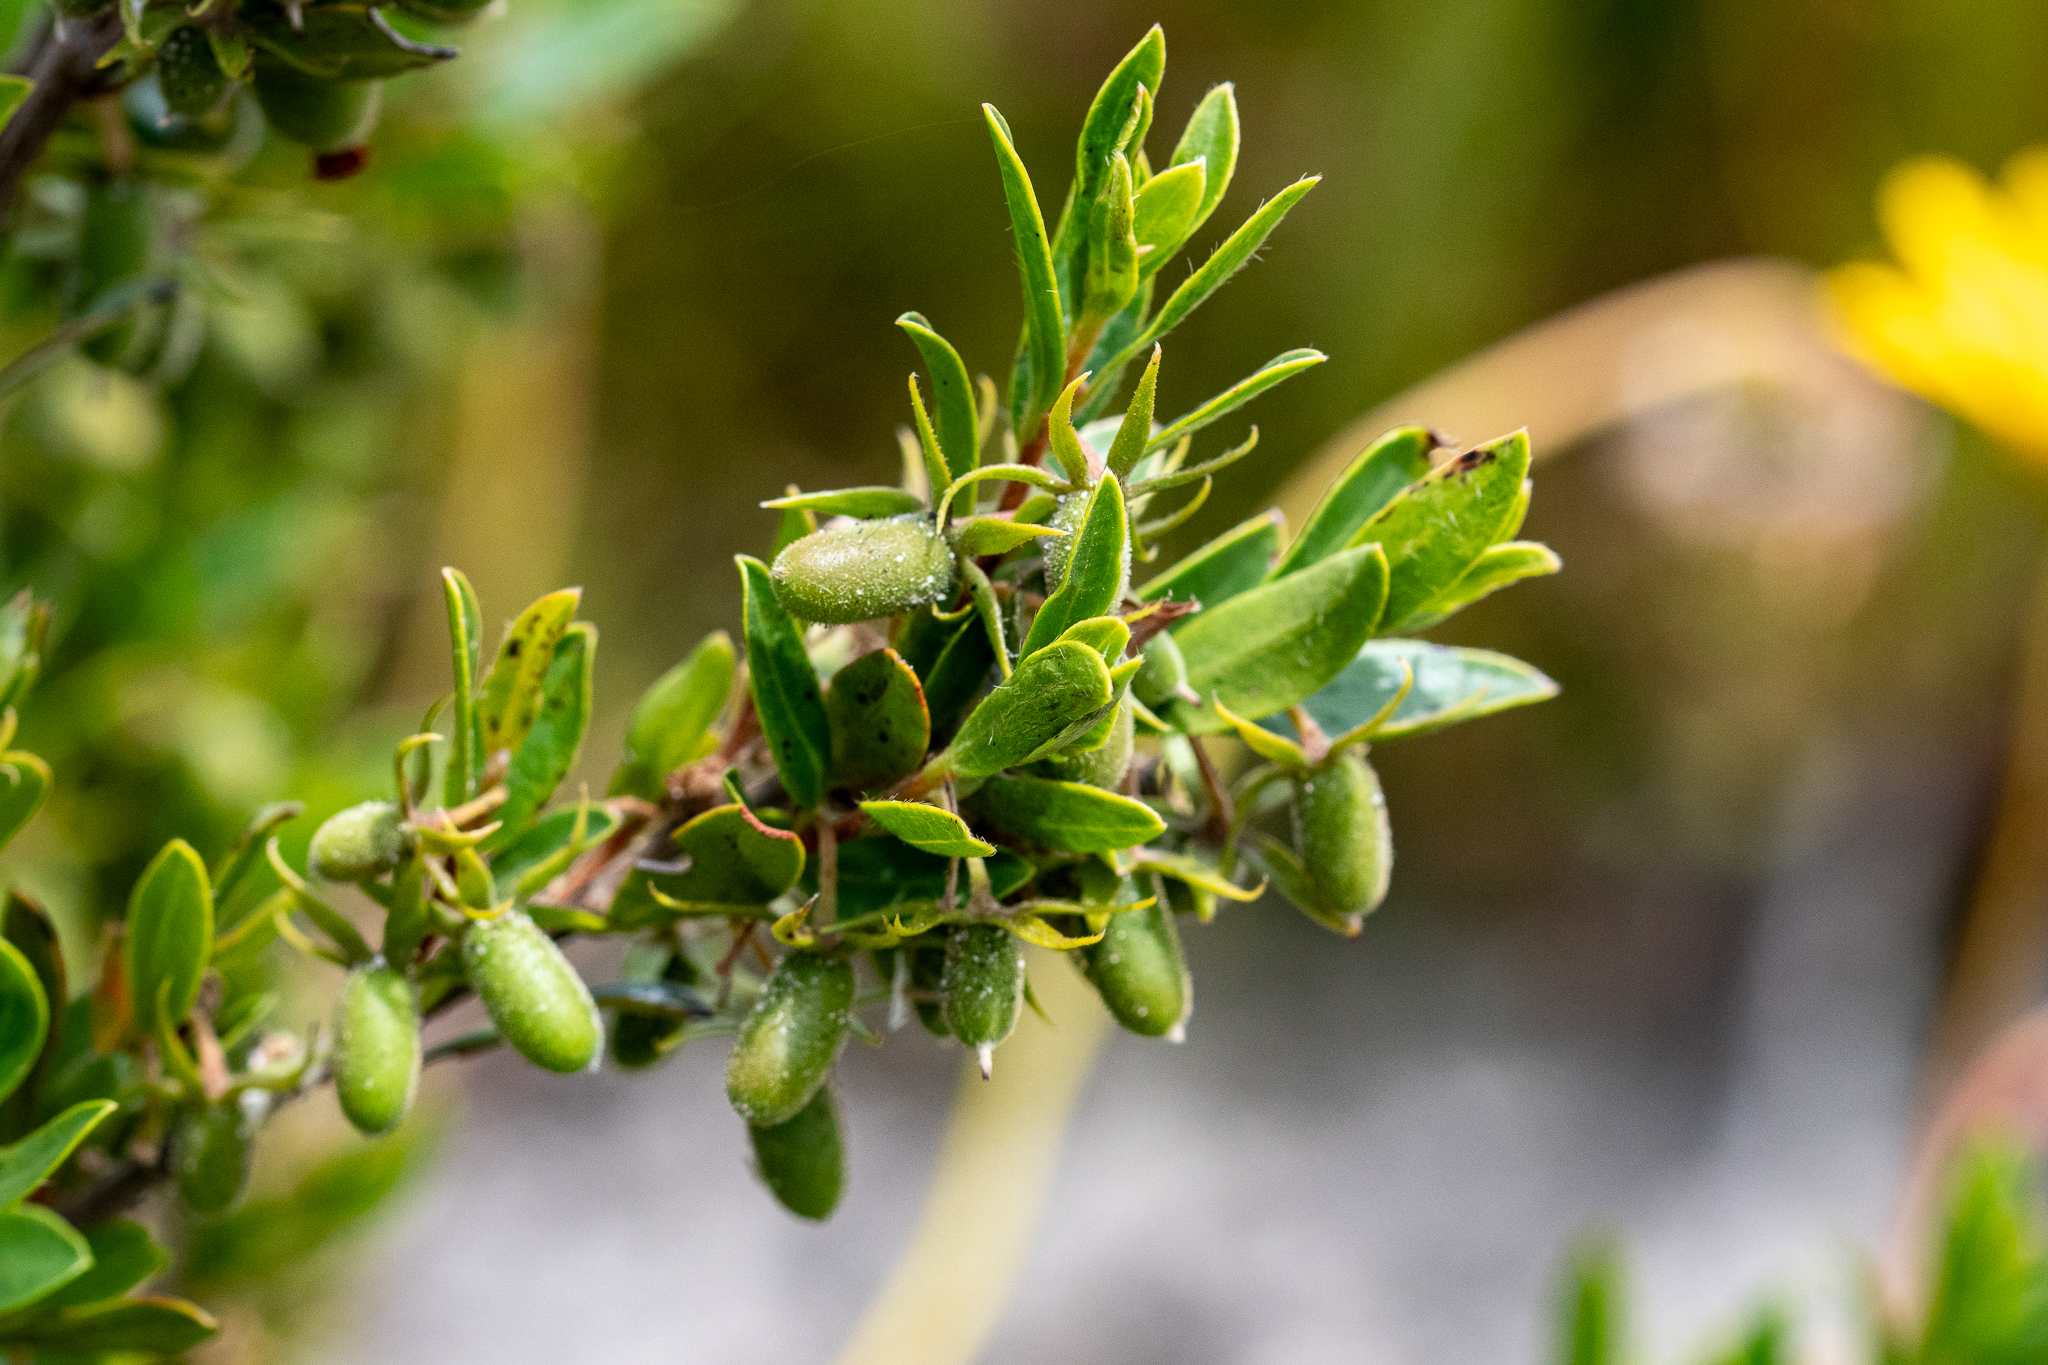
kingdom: Plantae
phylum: Tracheophyta
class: Magnoliopsida
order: Ericales
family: Ebenaceae
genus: Diospyros
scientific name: Diospyros glabra
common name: Fynbos star apple
